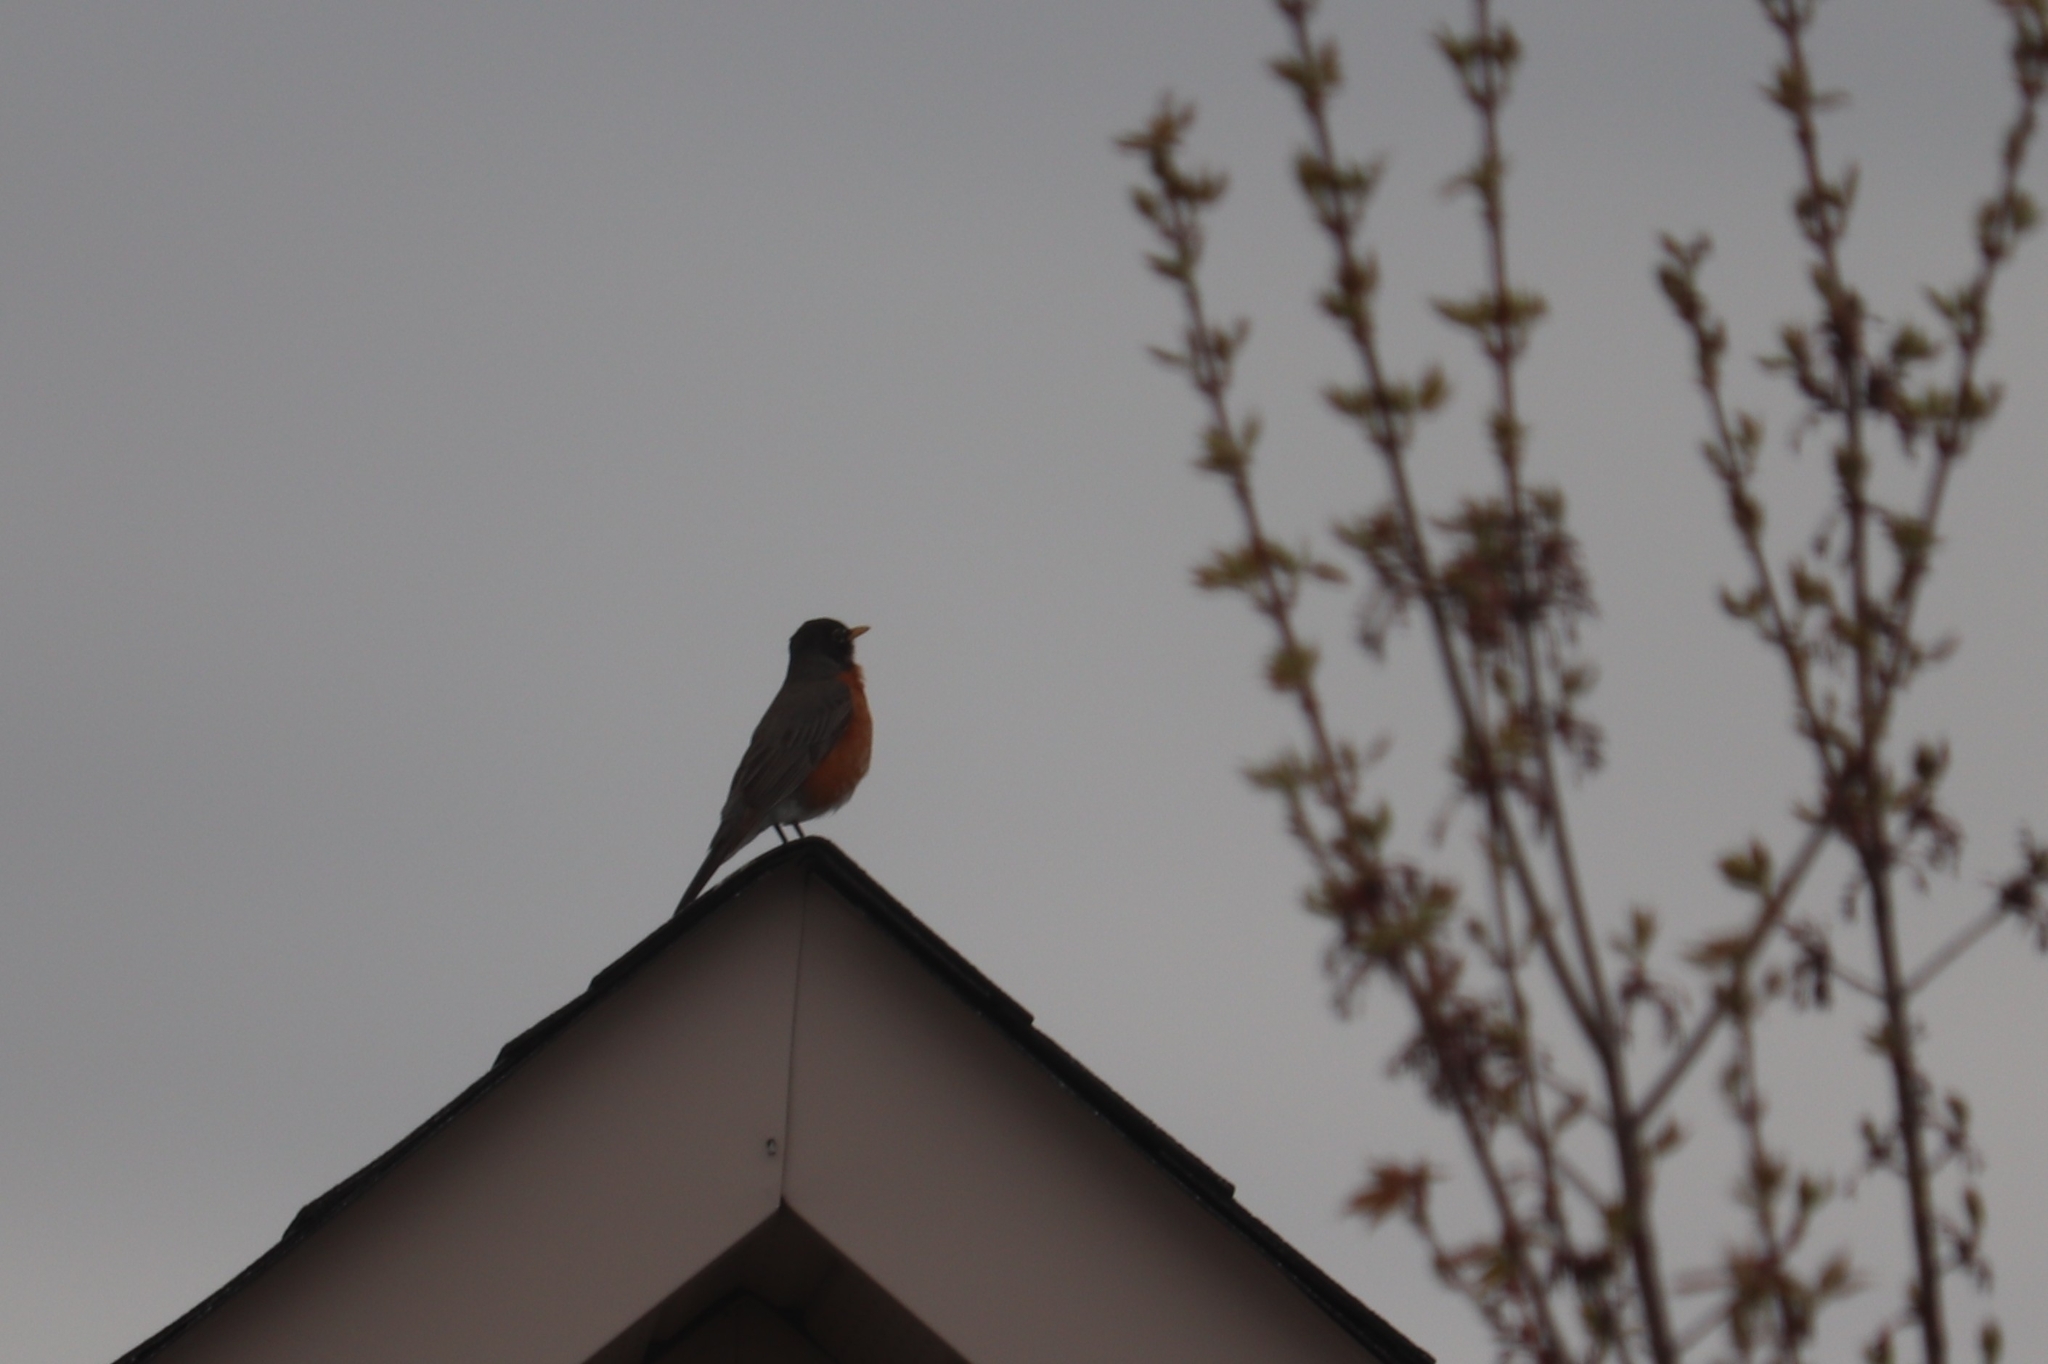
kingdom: Animalia
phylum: Chordata
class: Aves
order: Passeriformes
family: Turdidae
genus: Turdus
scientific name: Turdus migratorius
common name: American robin
